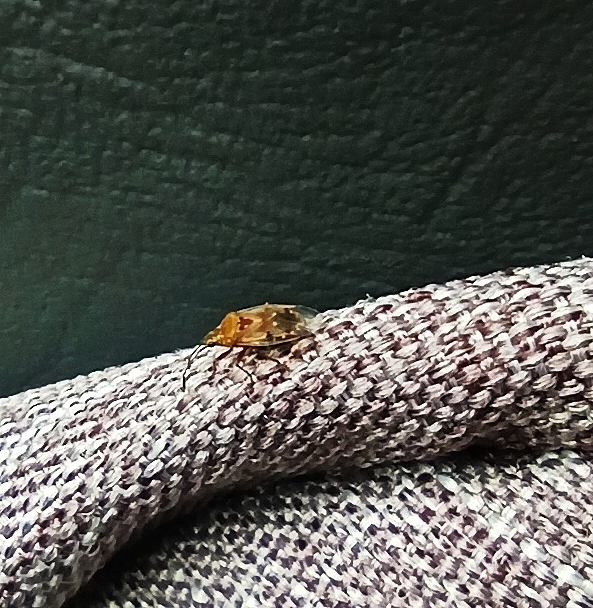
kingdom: Animalia
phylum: Arthropoda
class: Insecta
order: Hemiptera
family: Lygaeidae
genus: Kleidocerys
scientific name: Kleidocerys resedae
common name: Birch catkin bug
